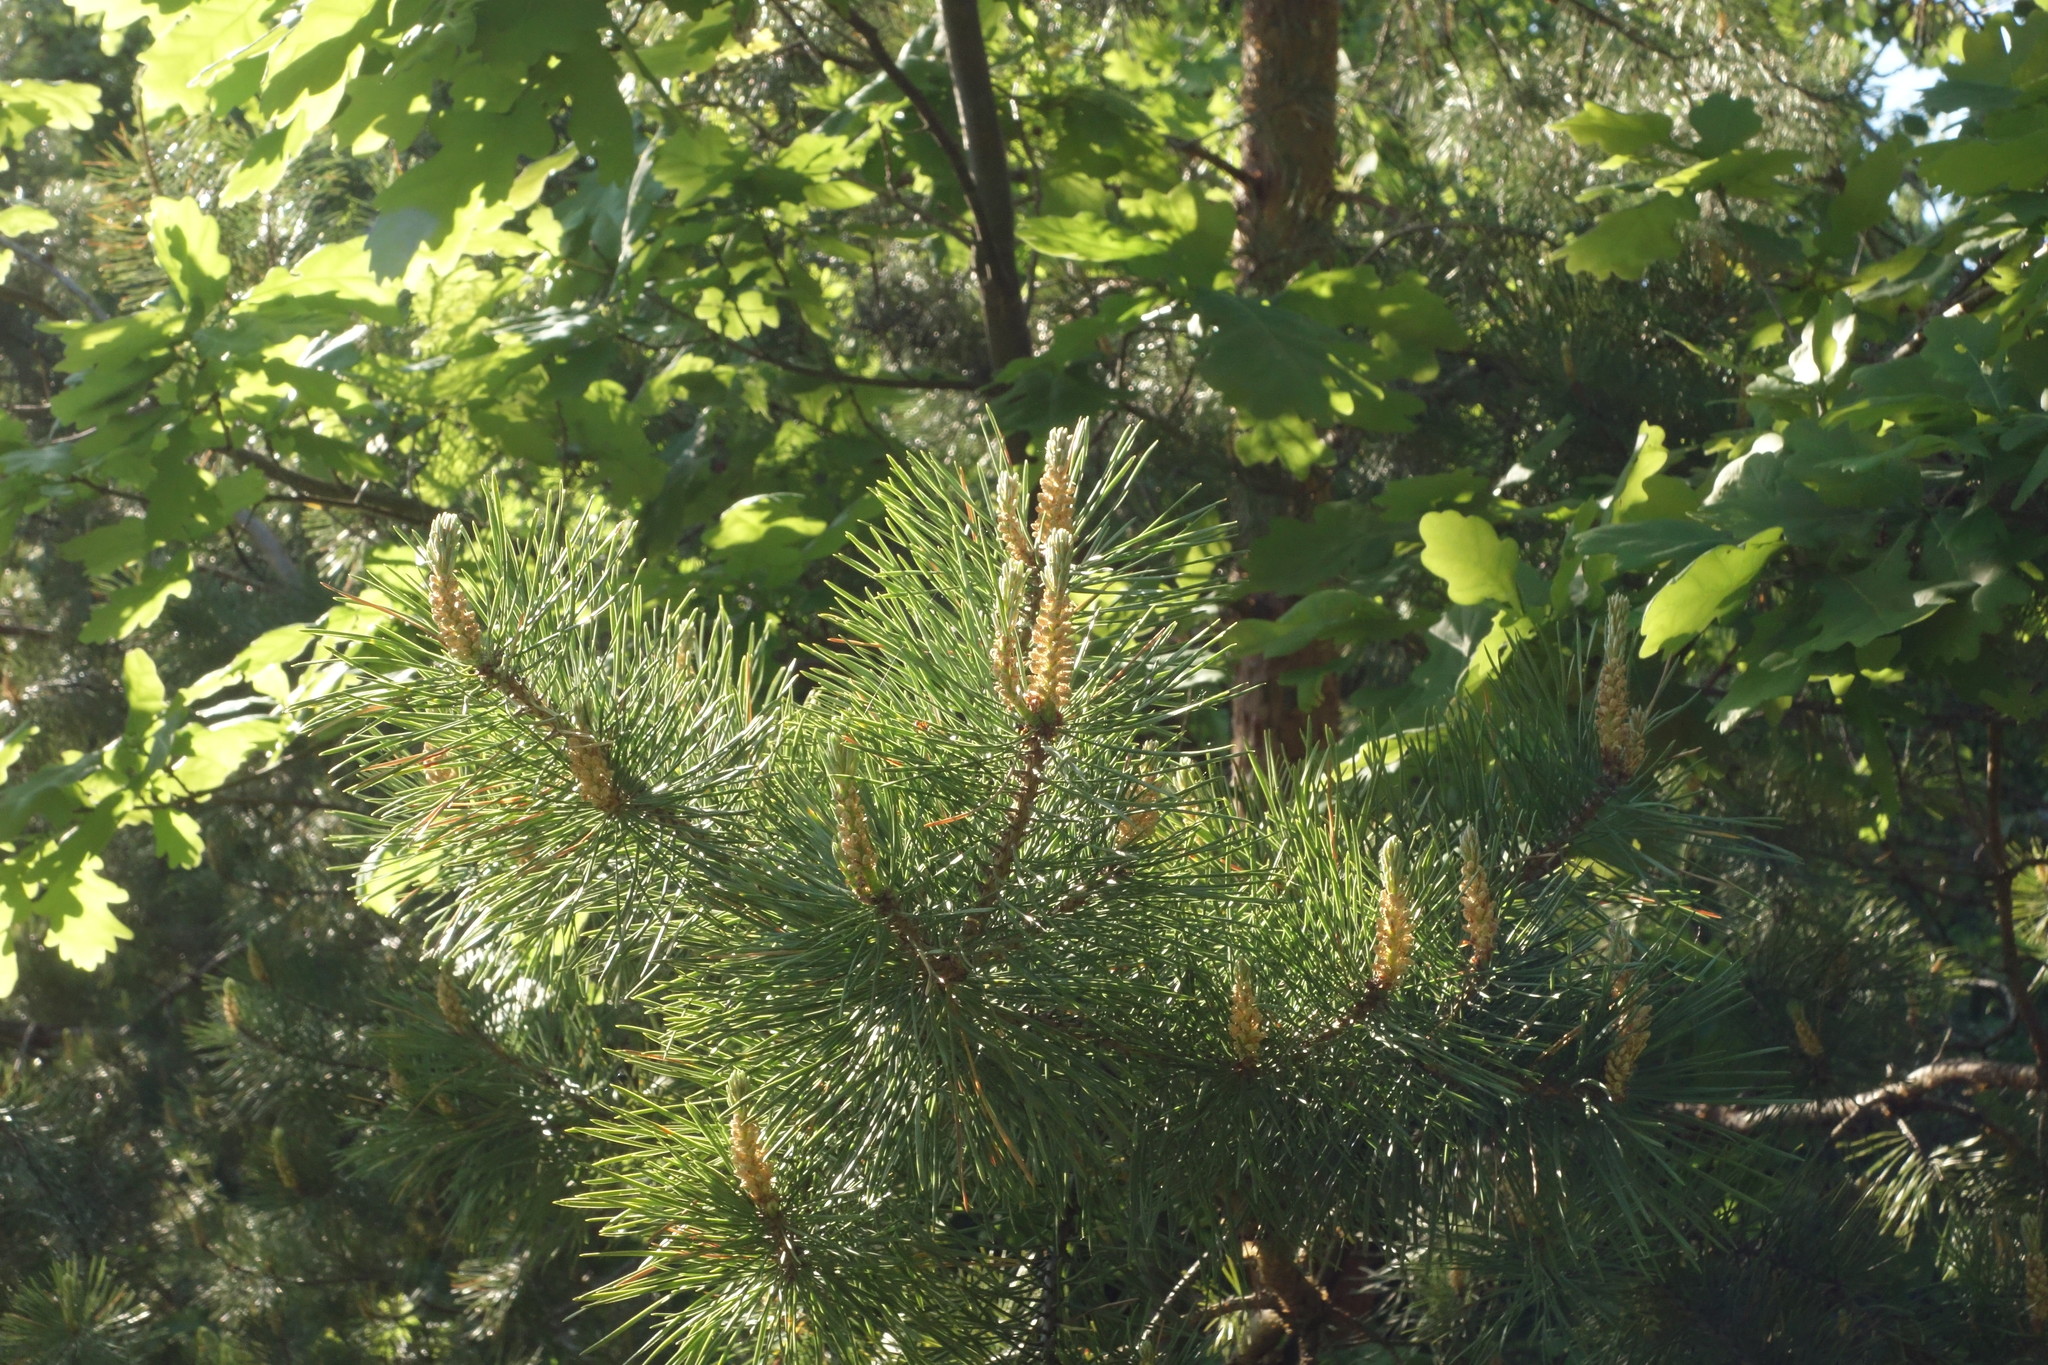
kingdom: Plantae
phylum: Tracheophyta
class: Pinopsida
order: Pinales
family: Pinaceae
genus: Pinus
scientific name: Pinus sylvestris
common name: Scots pine
